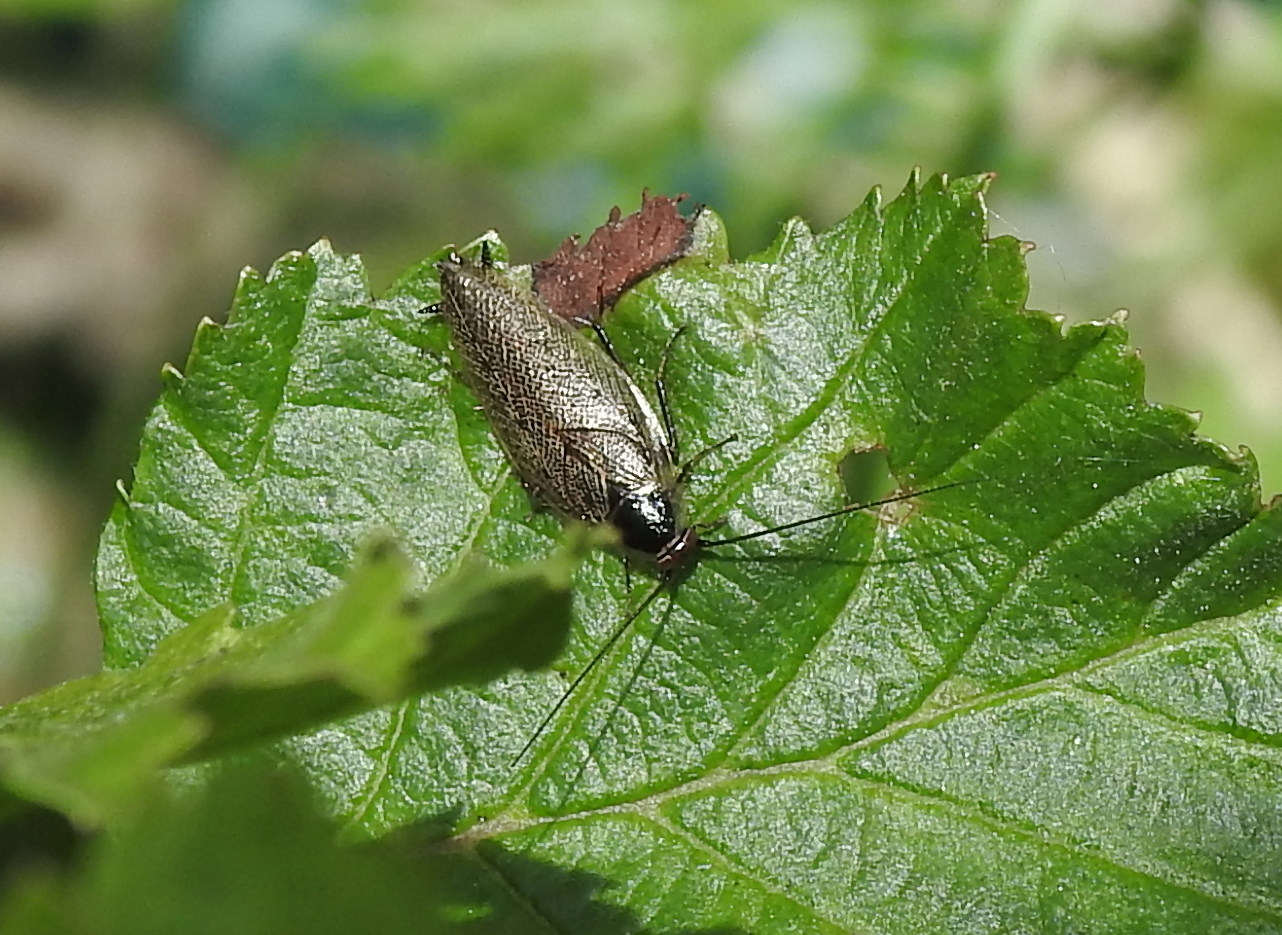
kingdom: Animalia
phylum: Arthropoda
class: Insecta
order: Blattodea
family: Ectobiidae
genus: Ectobius
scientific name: Ectobius lapponicus
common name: Dusky cockroach
